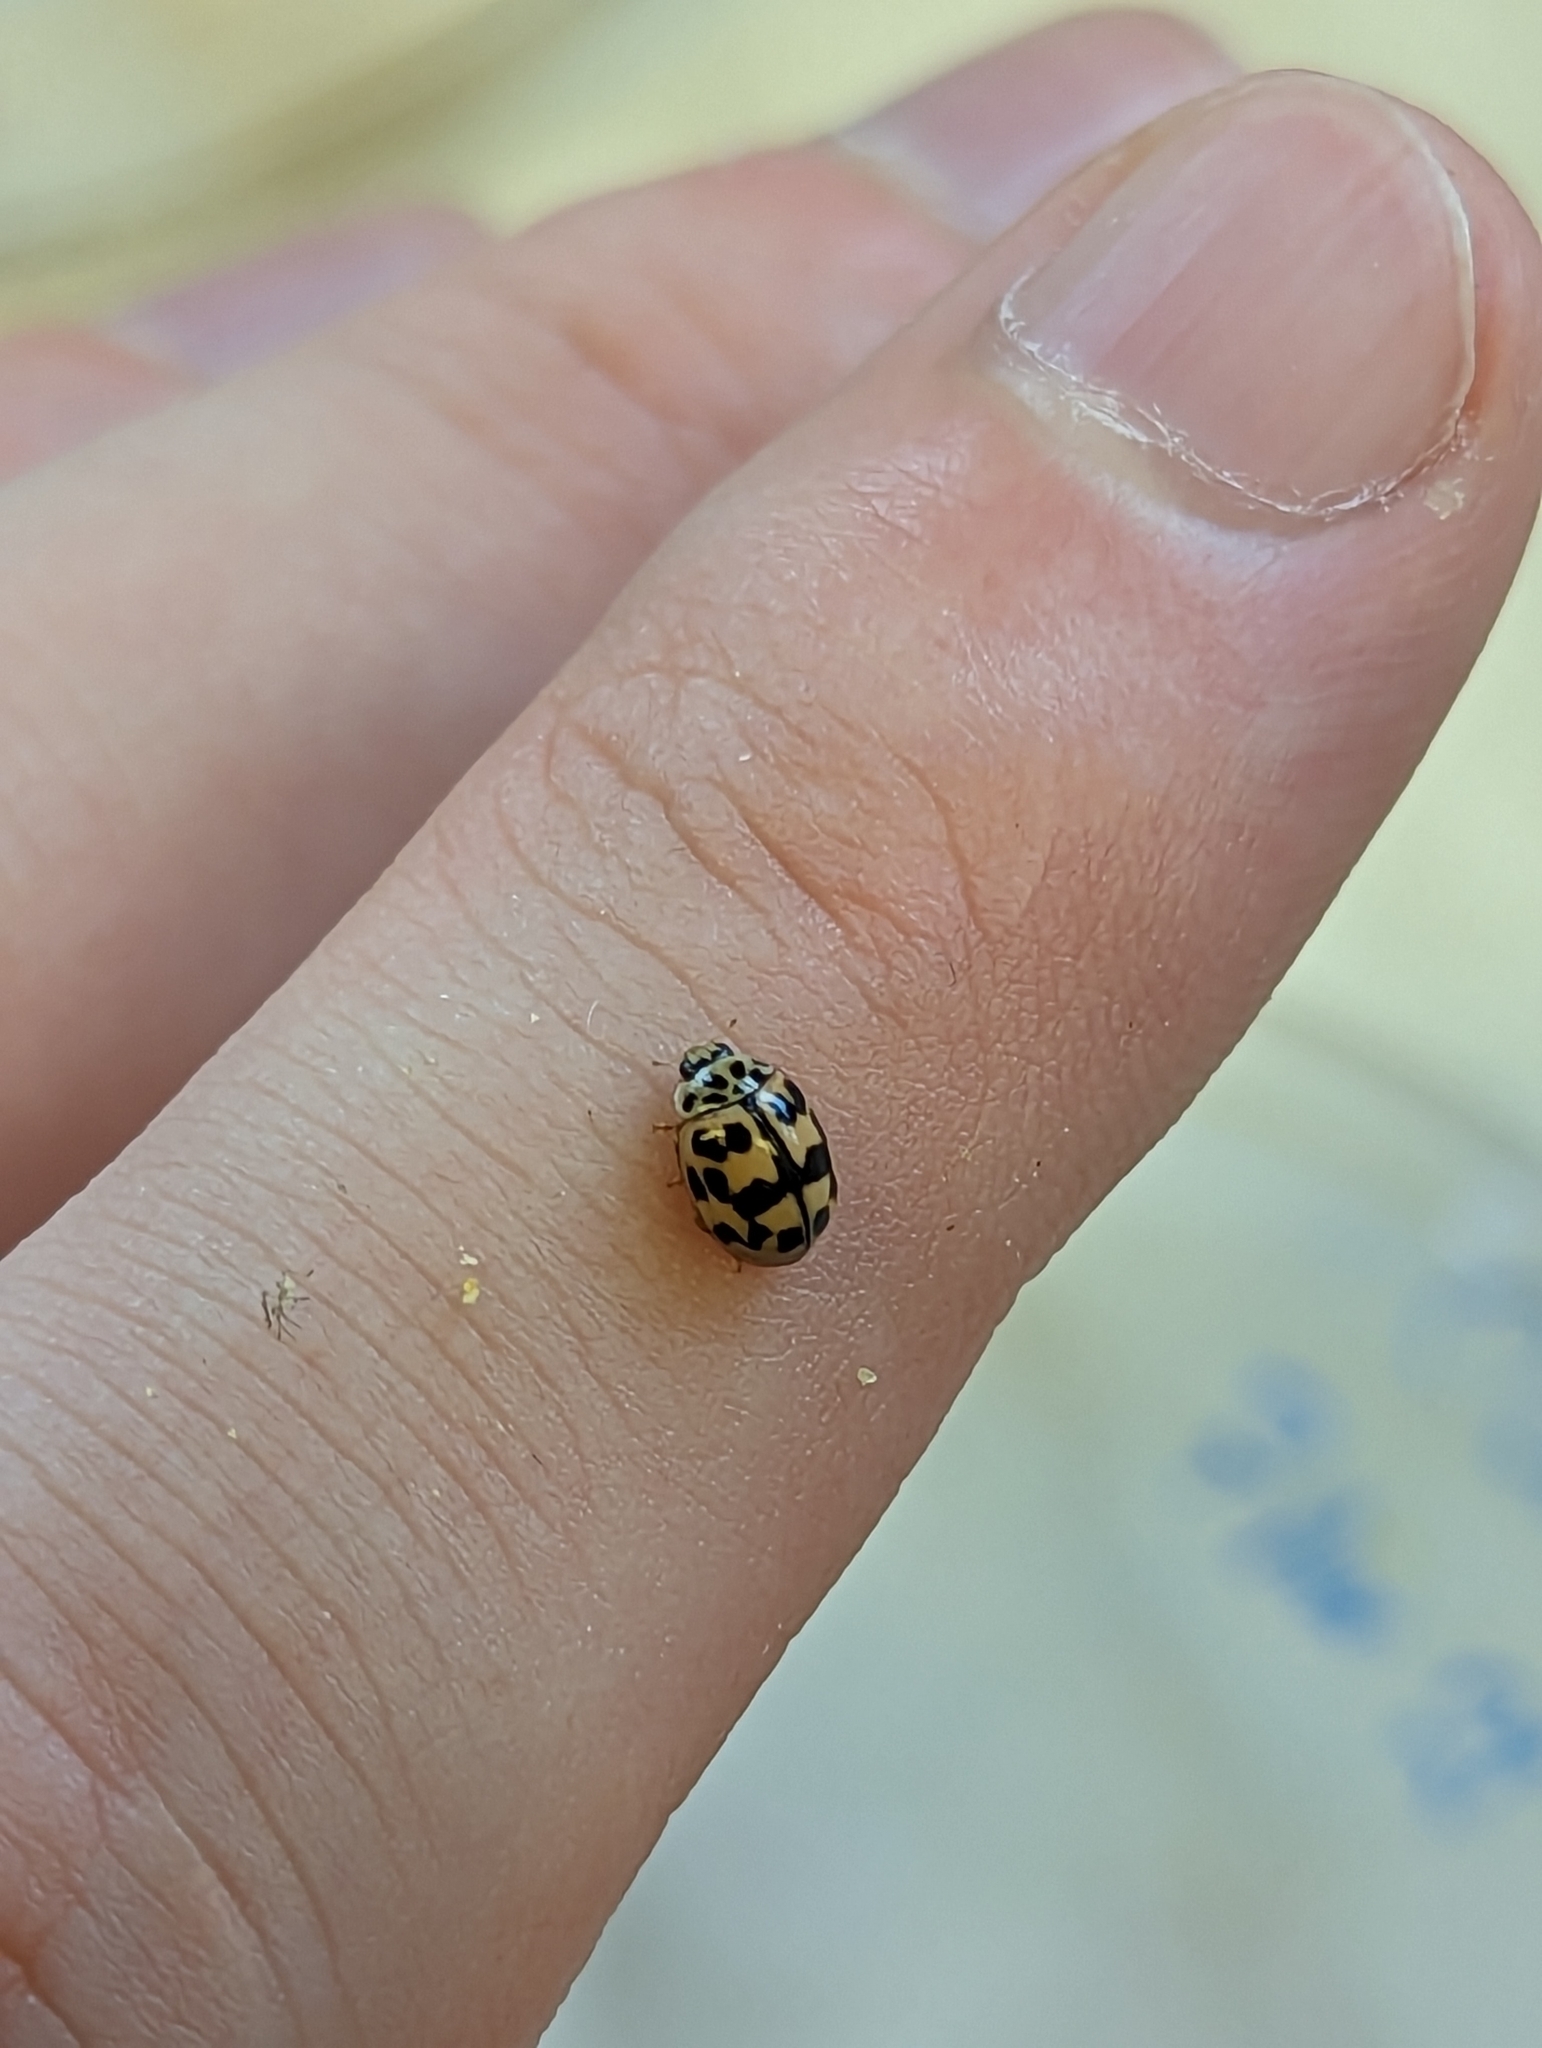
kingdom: Animalia
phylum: Arthropoda
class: Insecta
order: Coleoptera
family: Coccinellidae
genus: Oenopia
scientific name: Oenopia conglobata
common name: Ladybird beetle
